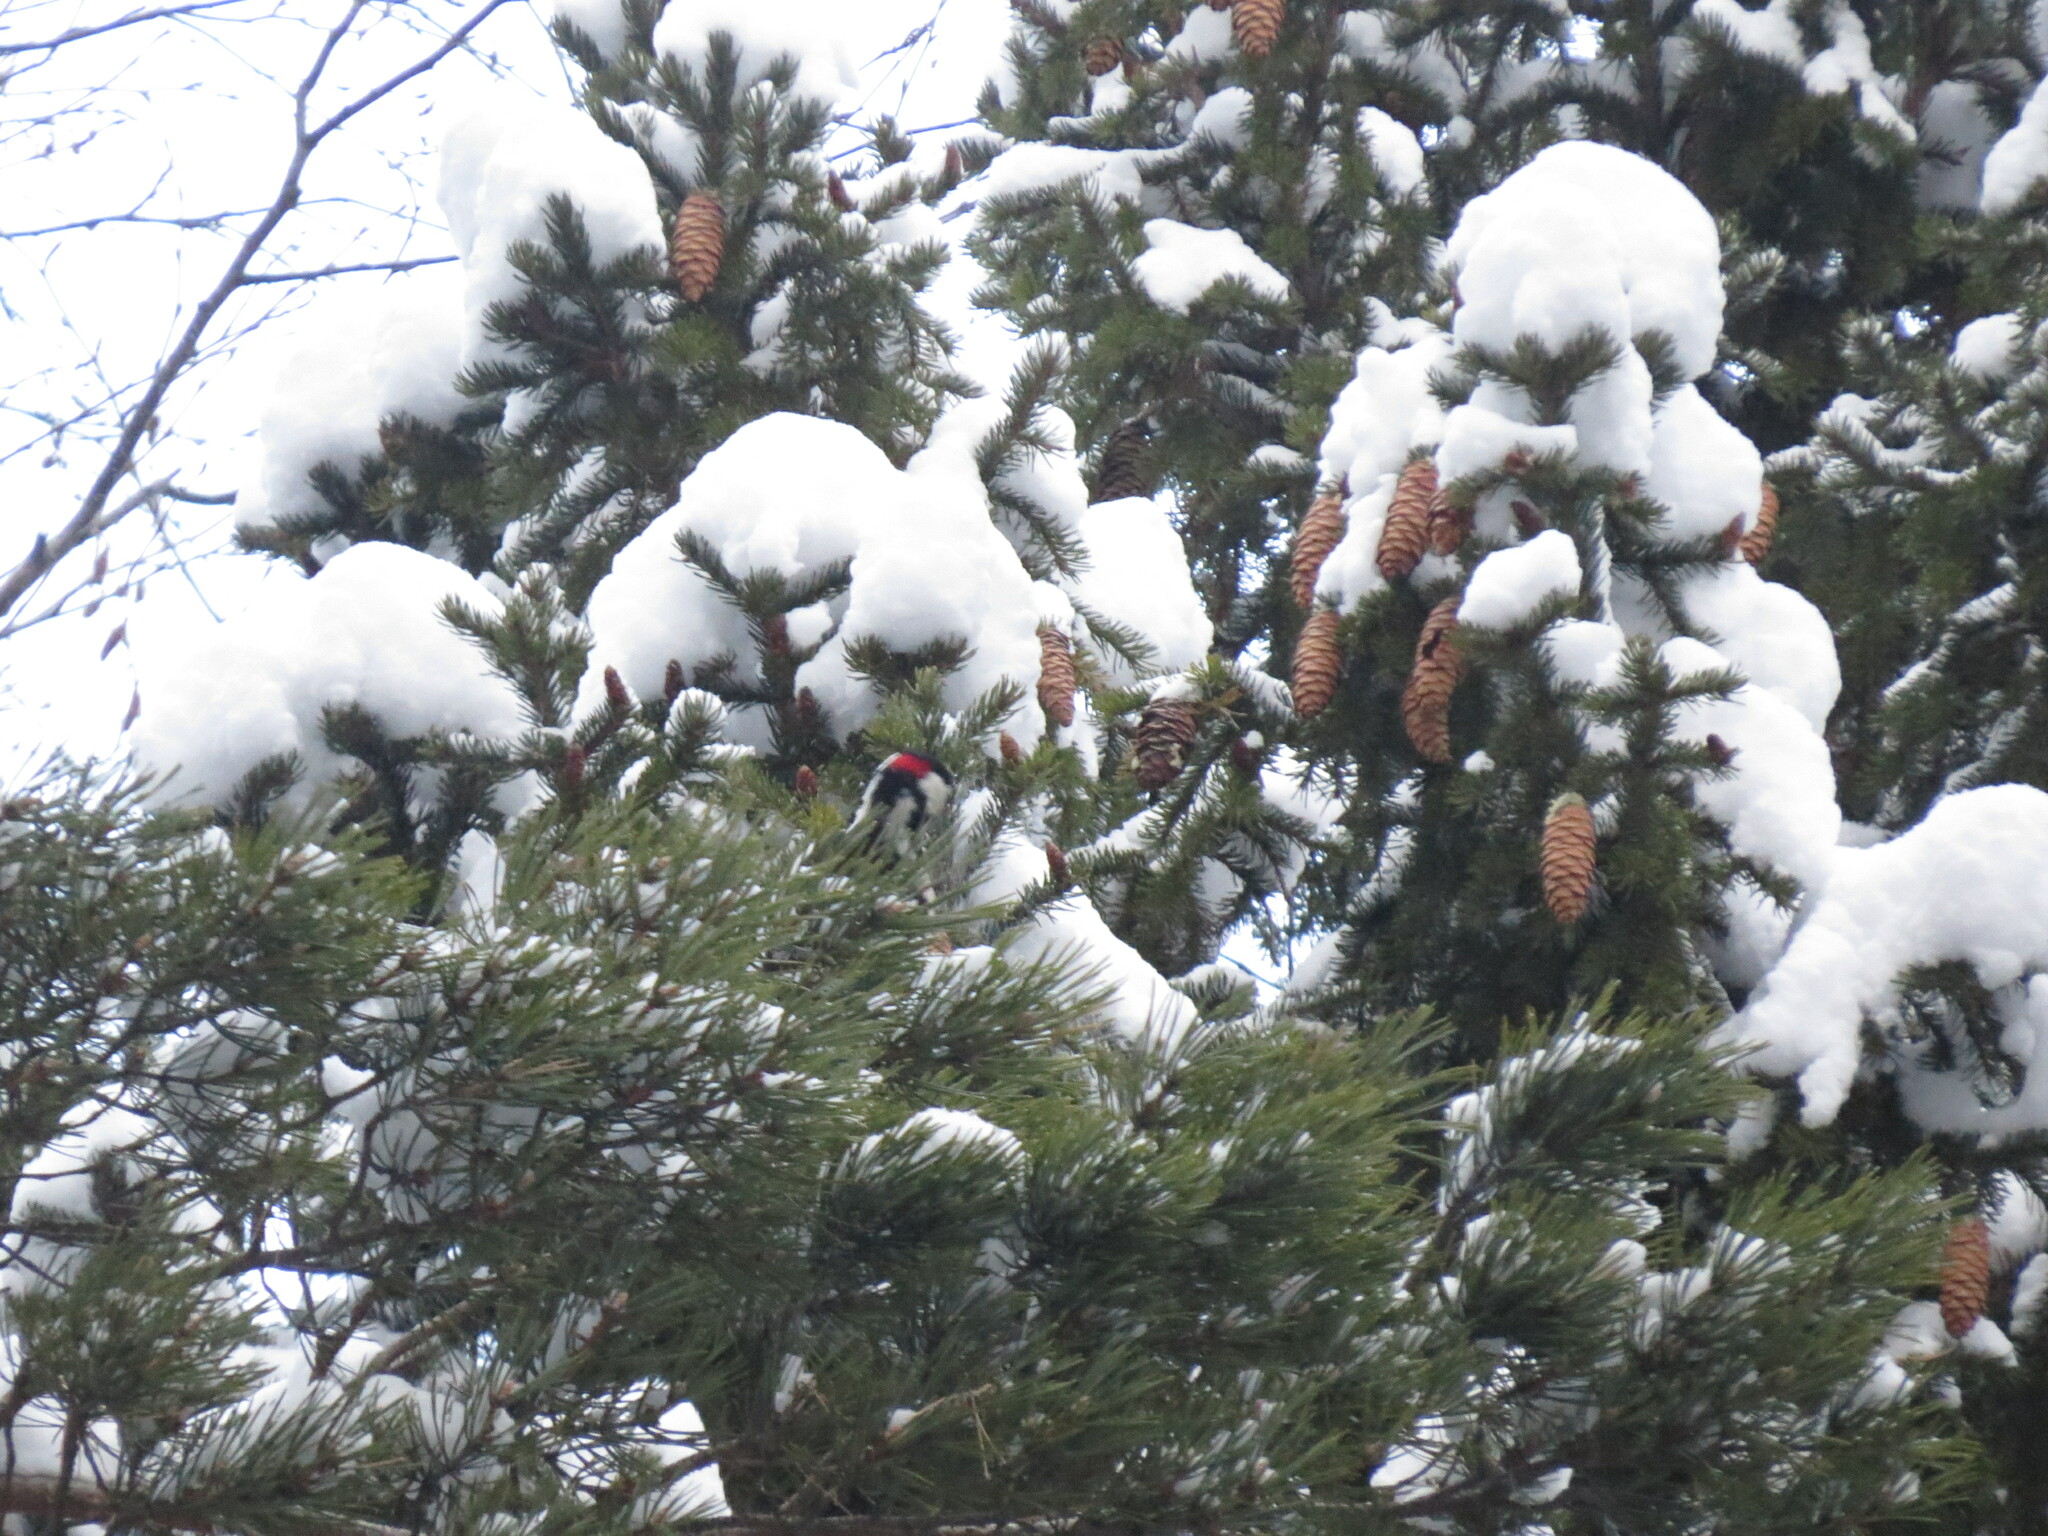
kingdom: Animalia
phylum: Chordata
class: Aves
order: Piciformes
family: Picidae
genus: Dendrocopos
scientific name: Dendrocopos major
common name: Great spotted woodpecker
